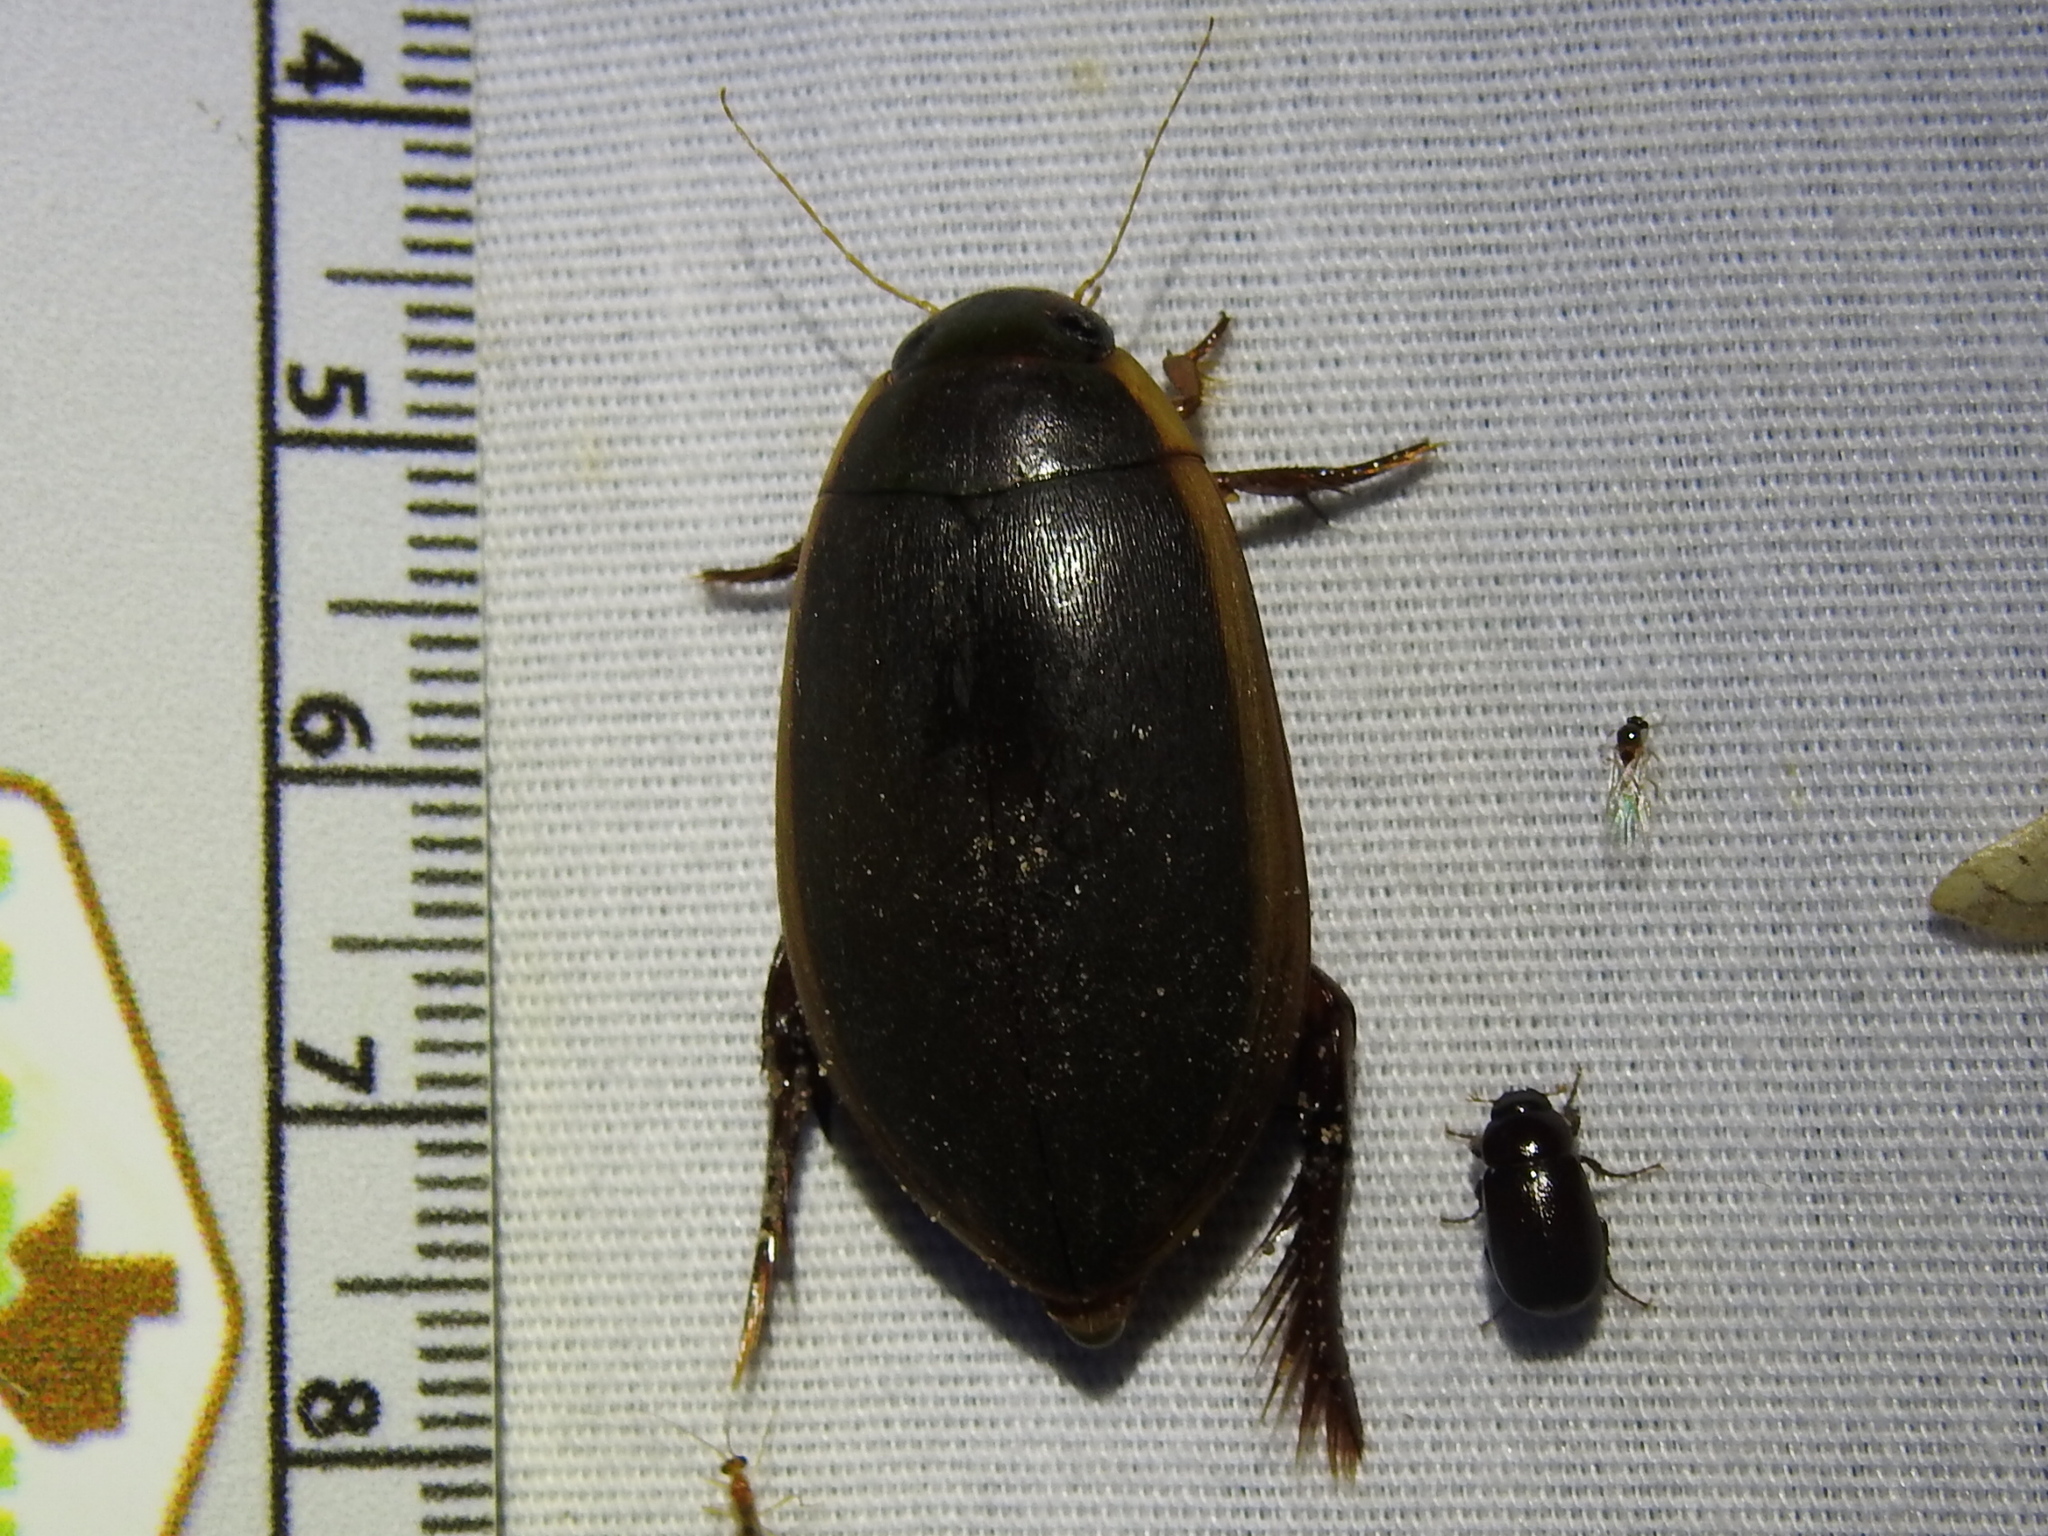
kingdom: Animalia
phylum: Arthropoda
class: Insecta
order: Coleoptera
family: Dytiscidae
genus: Cybister
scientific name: Cybister fimbriolatus
